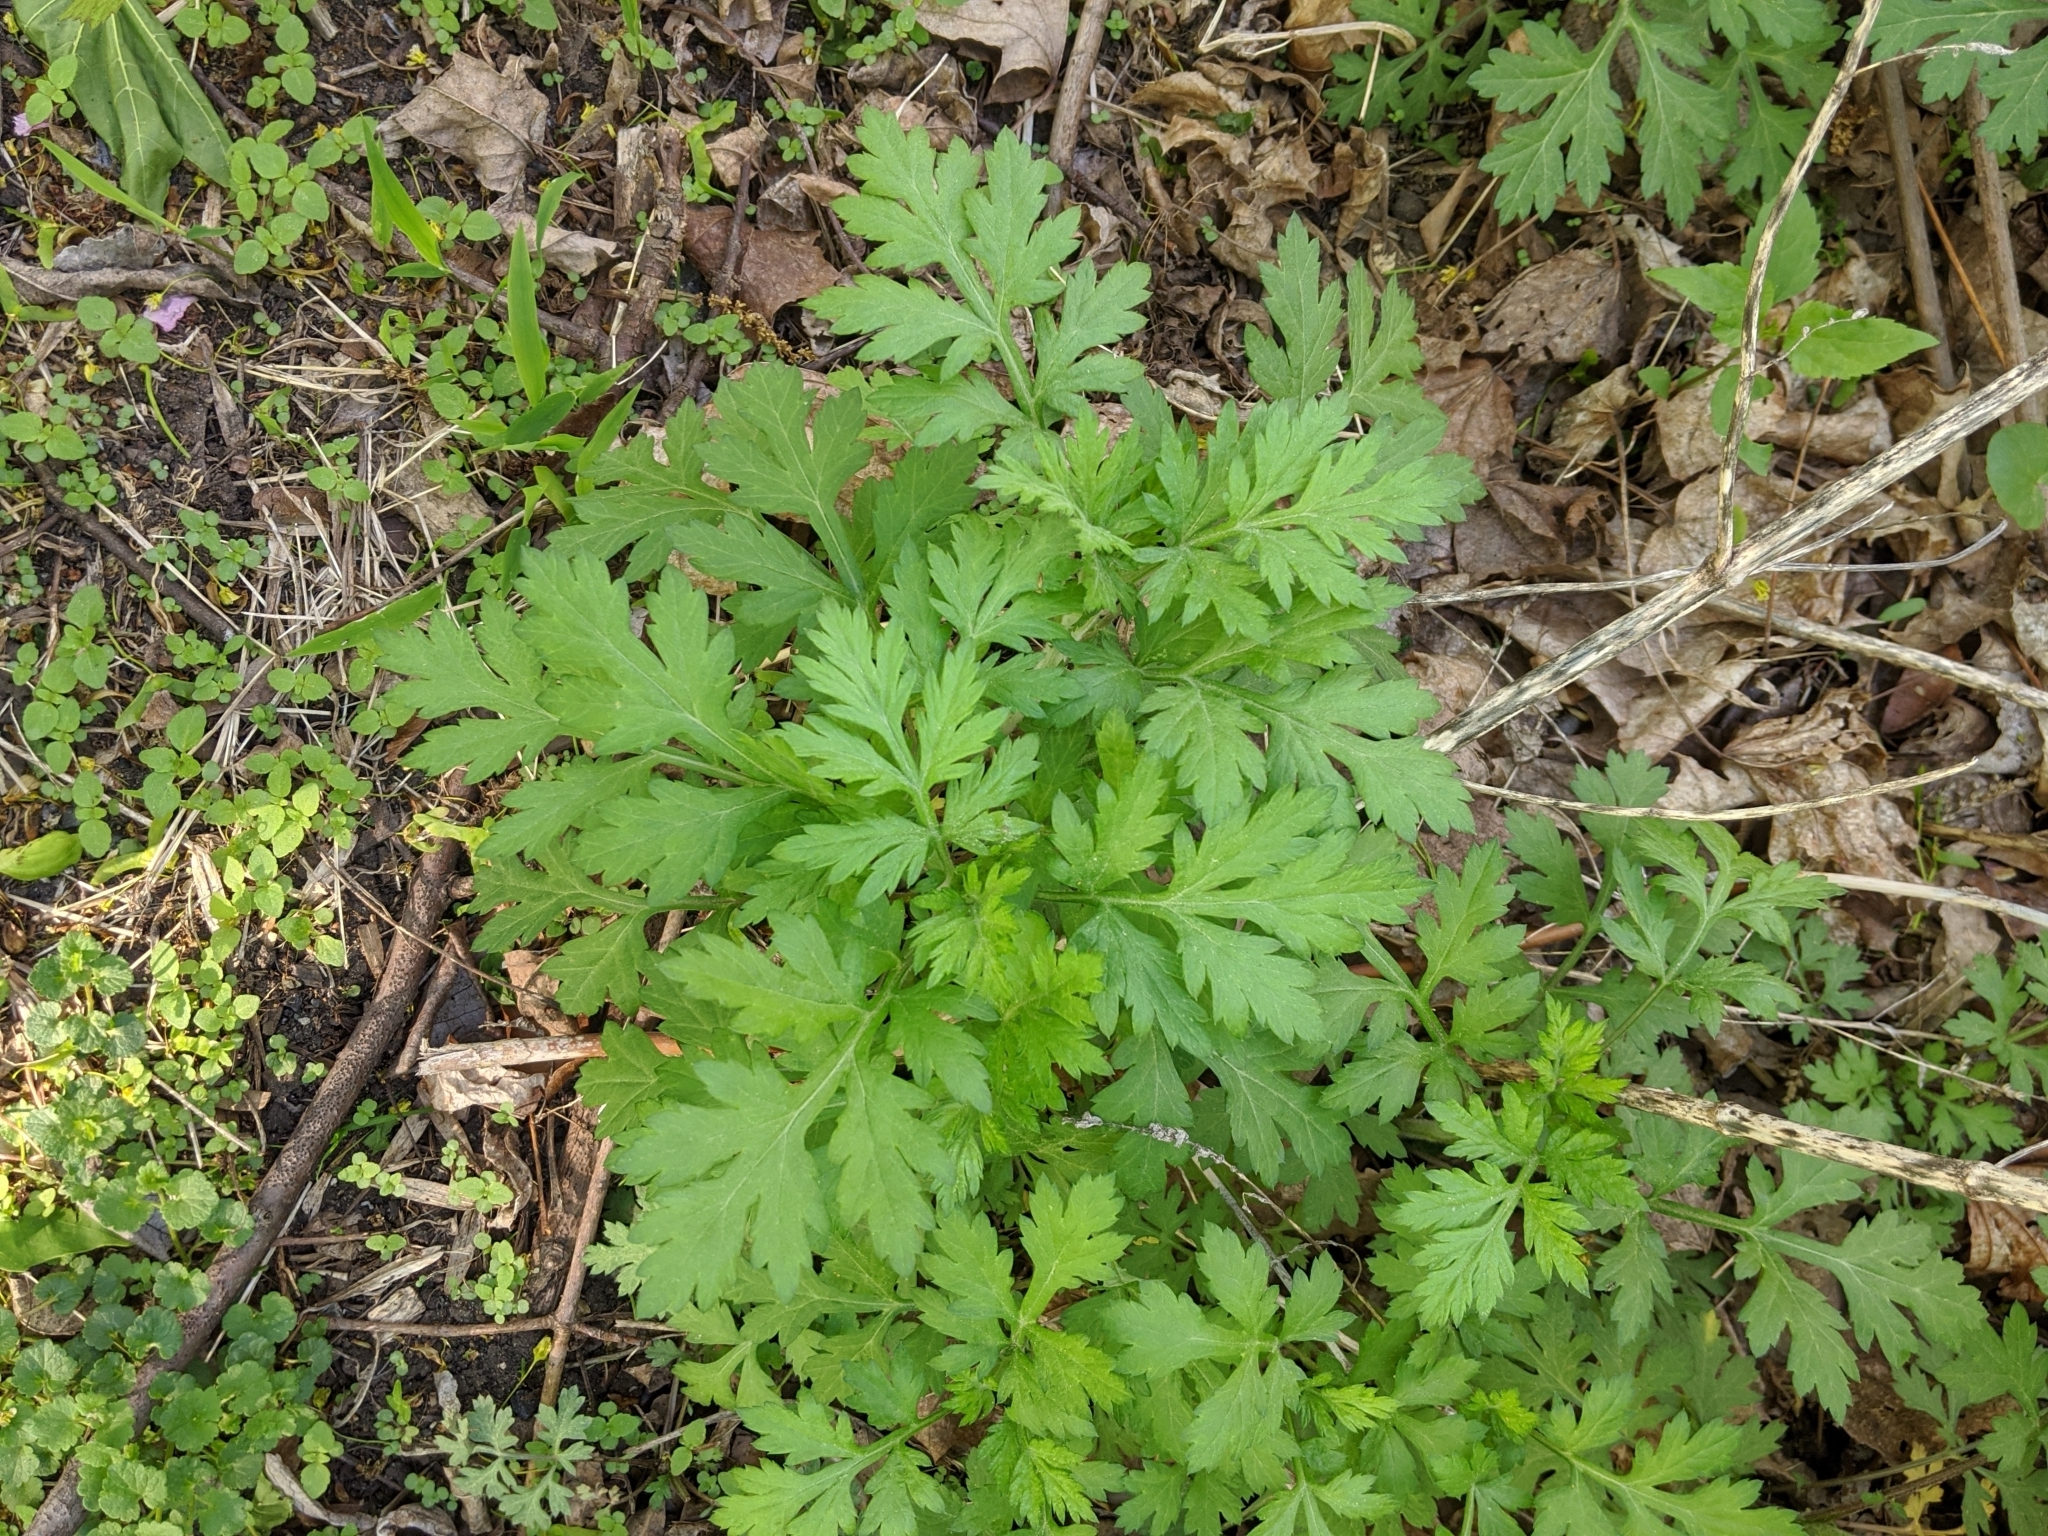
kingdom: Plantae
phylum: Tracheophyta
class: Magnoliopsida
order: Asterales
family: Asteraceae
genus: Artemisia
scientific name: Artemisia vulgaris
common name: Mugwort
